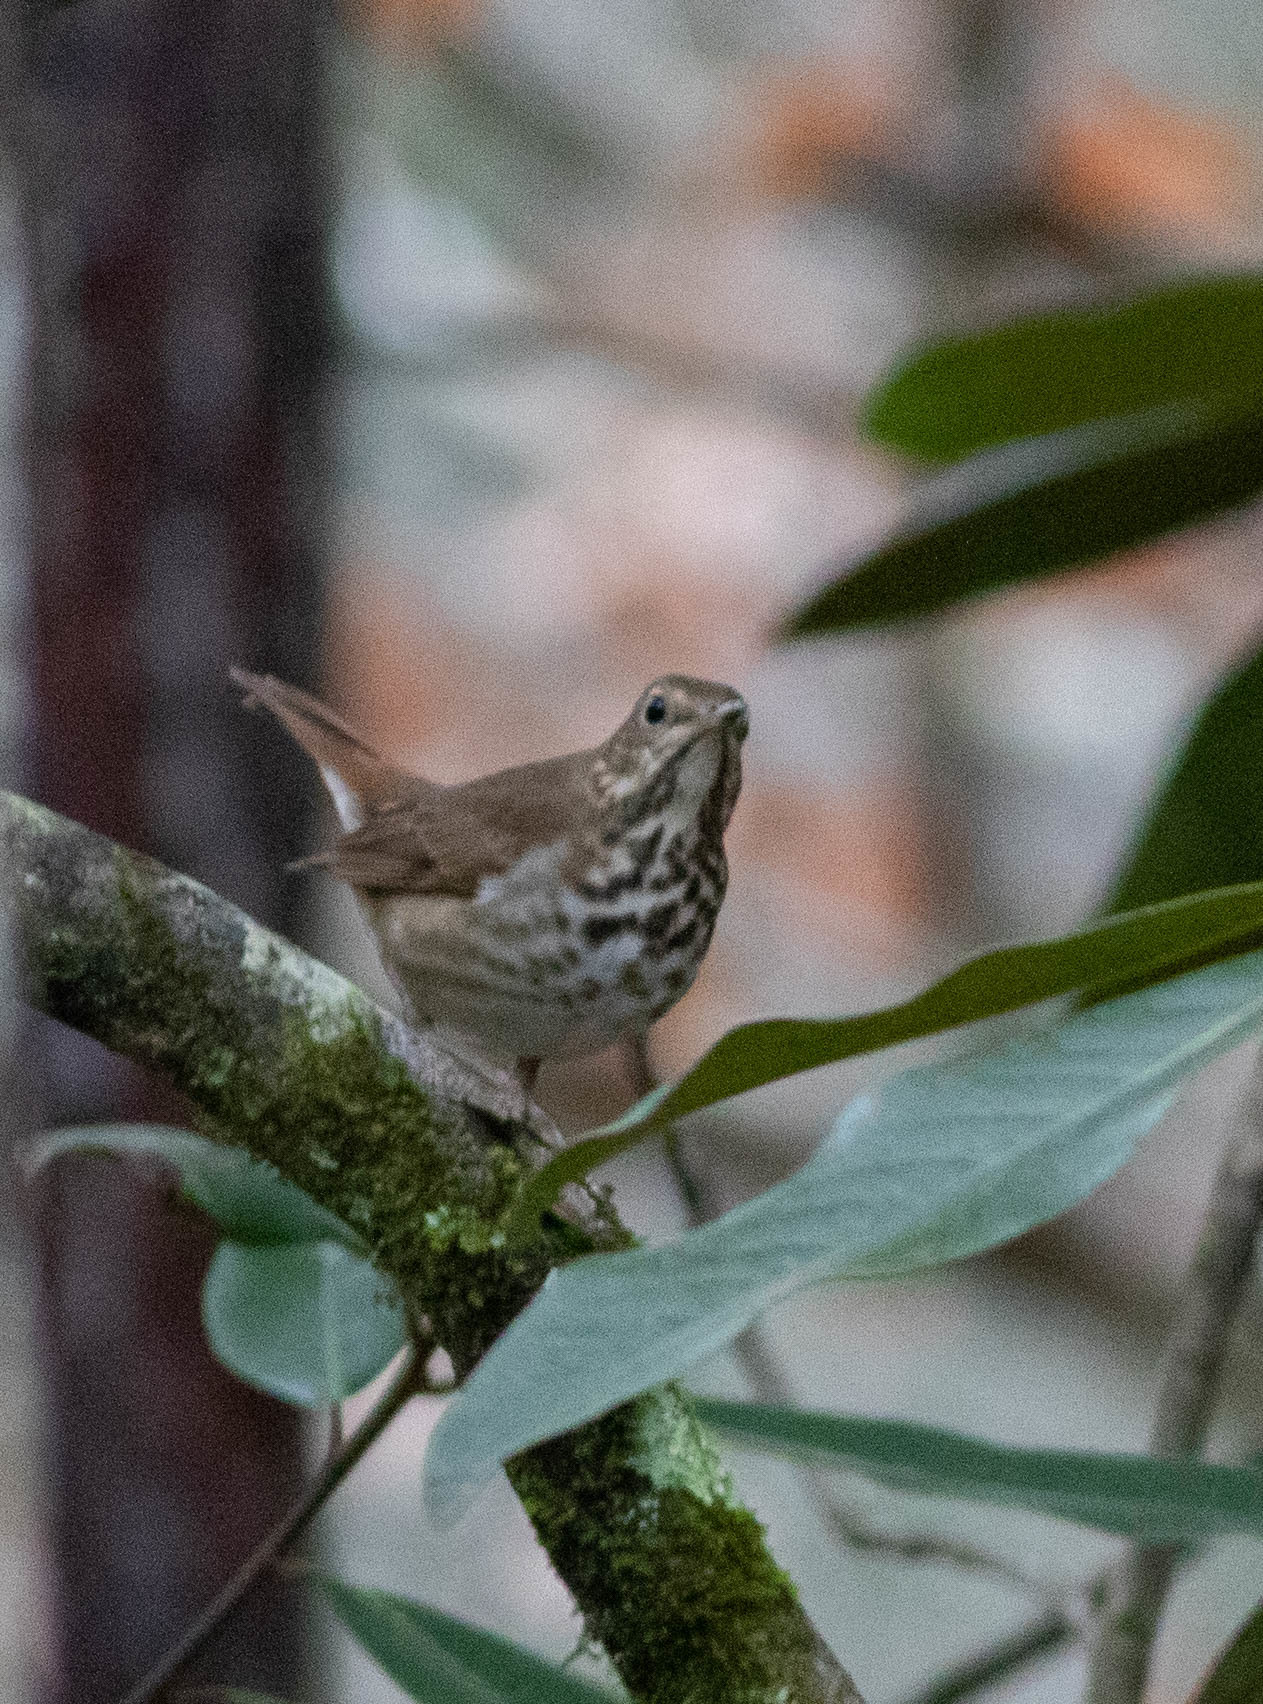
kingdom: Animalia
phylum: Chordata
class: Aves
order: Passeriformes
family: Turdidae
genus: Catharus
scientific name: Catharus guttatus
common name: Hermit thrush
